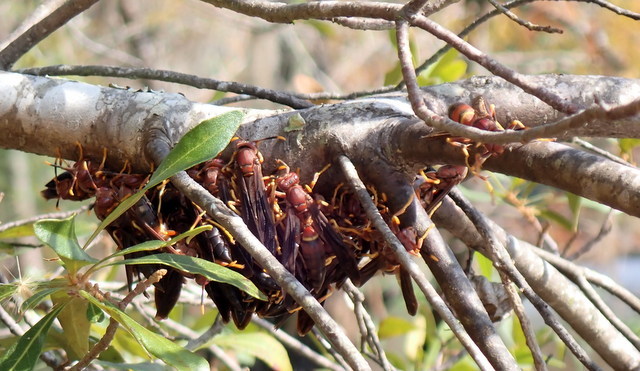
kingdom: Animalia
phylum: Arthropoda
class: Insecta
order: Hymenoptera
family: Eumenidae
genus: Polistes
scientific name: Polistes annularis
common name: Ringed paper wasp
